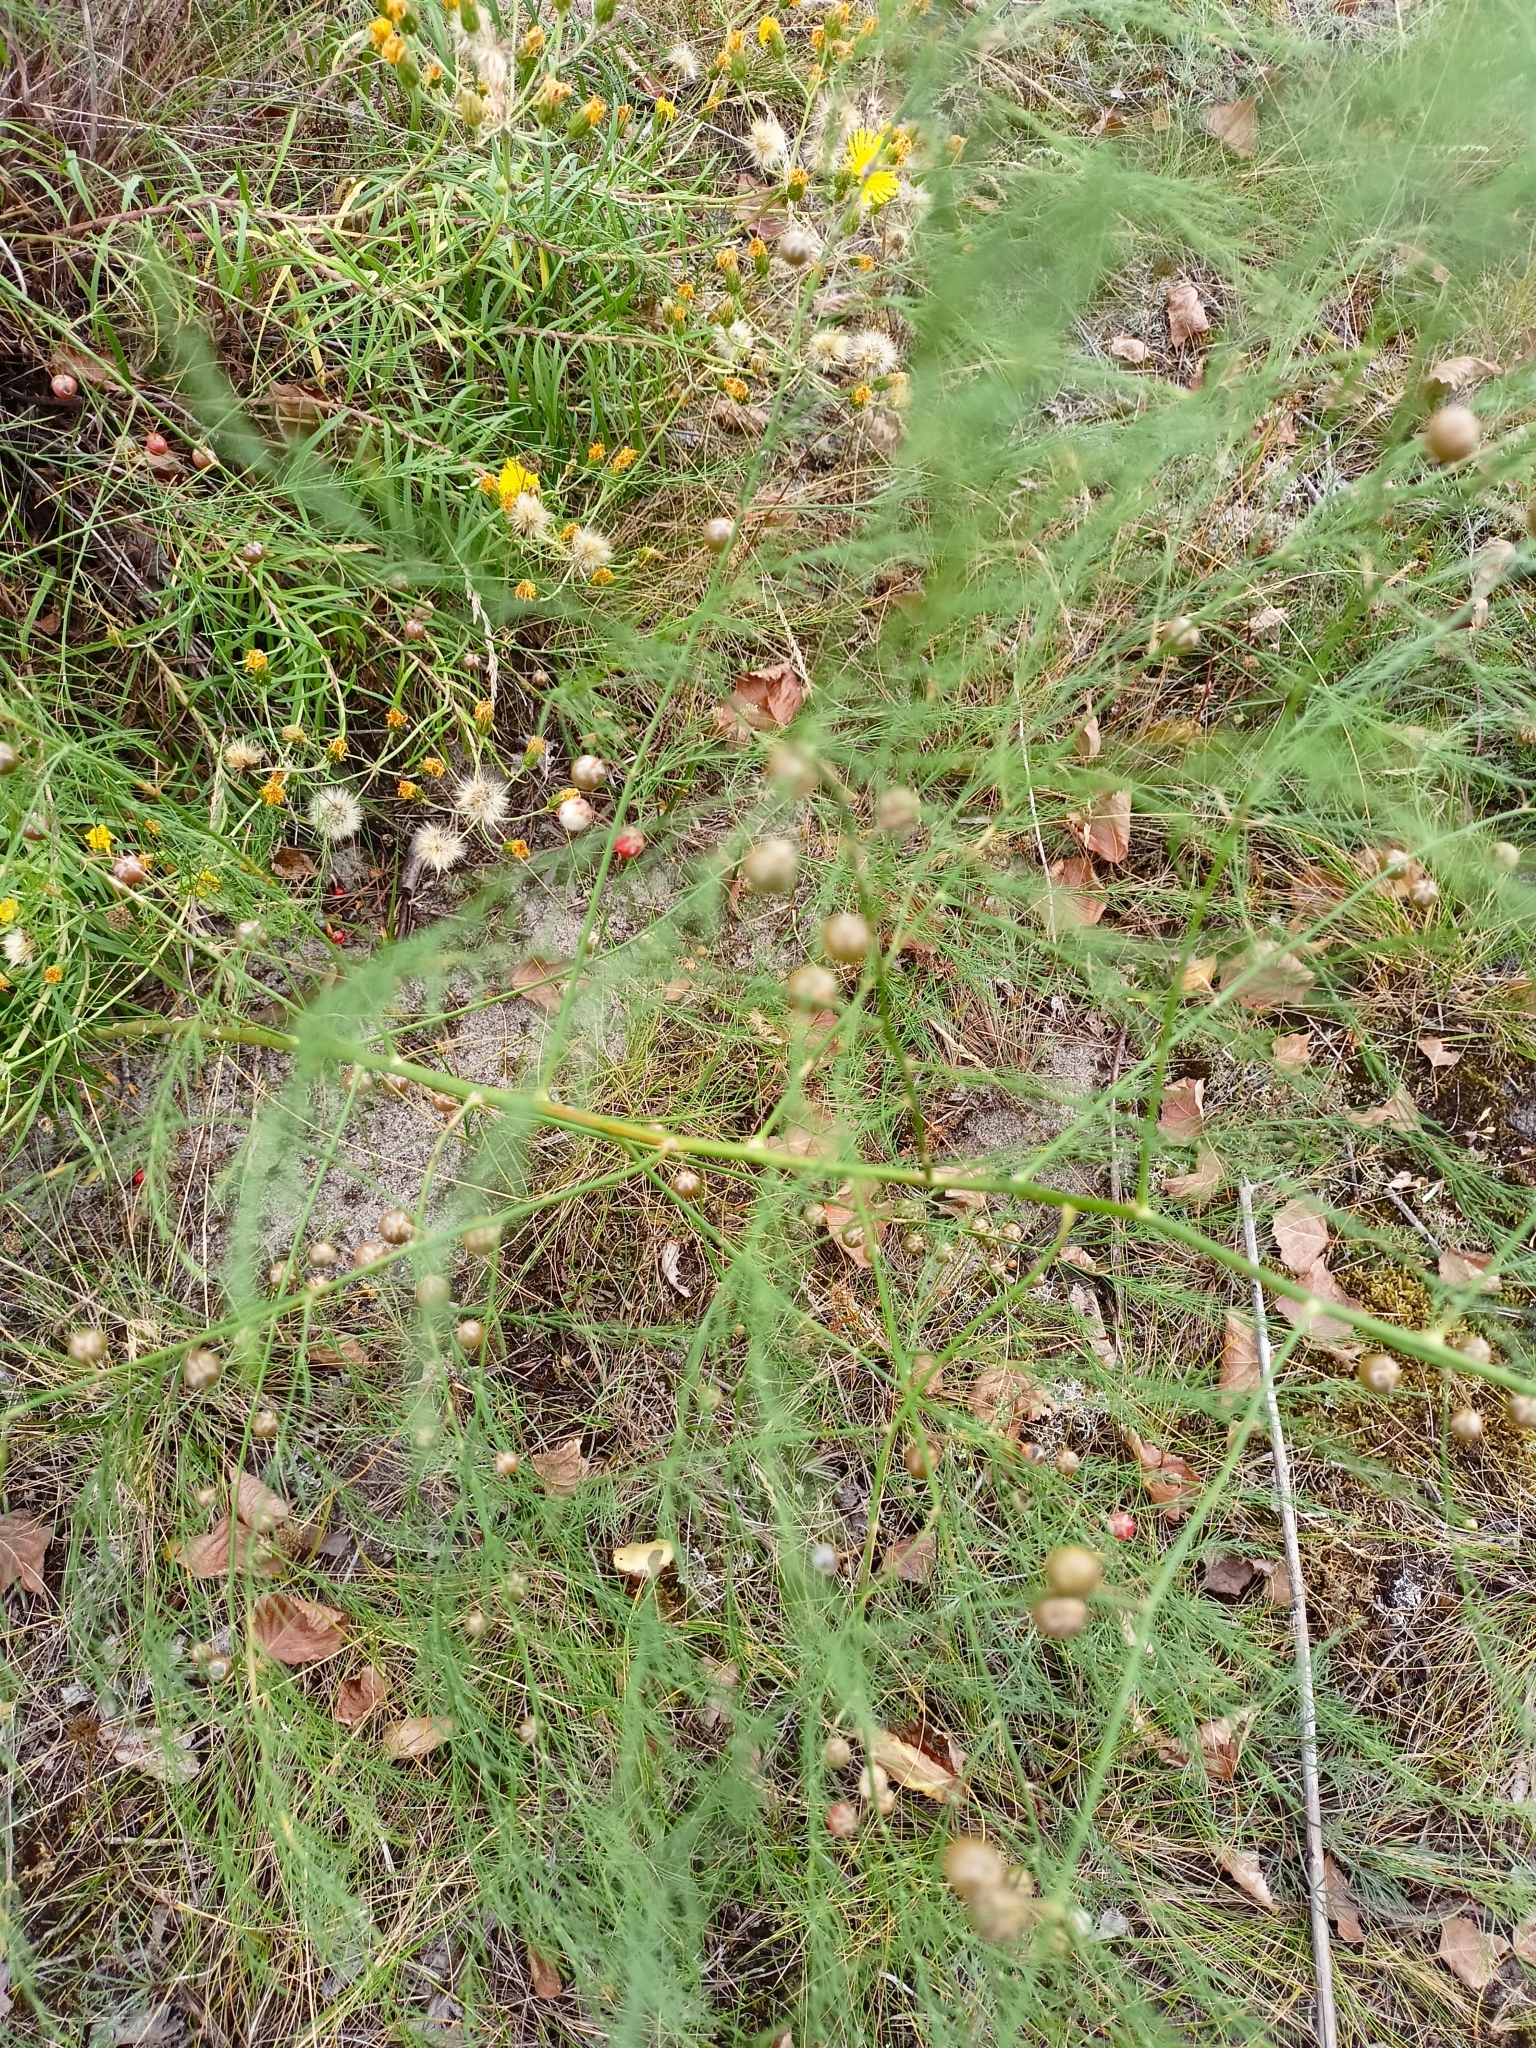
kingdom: Plantae
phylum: Tracheophyta
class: Liliopsida
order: Asparagales
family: Asparagaceae
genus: Asparagus
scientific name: Asparagus officinalis
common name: Garden asparagus
